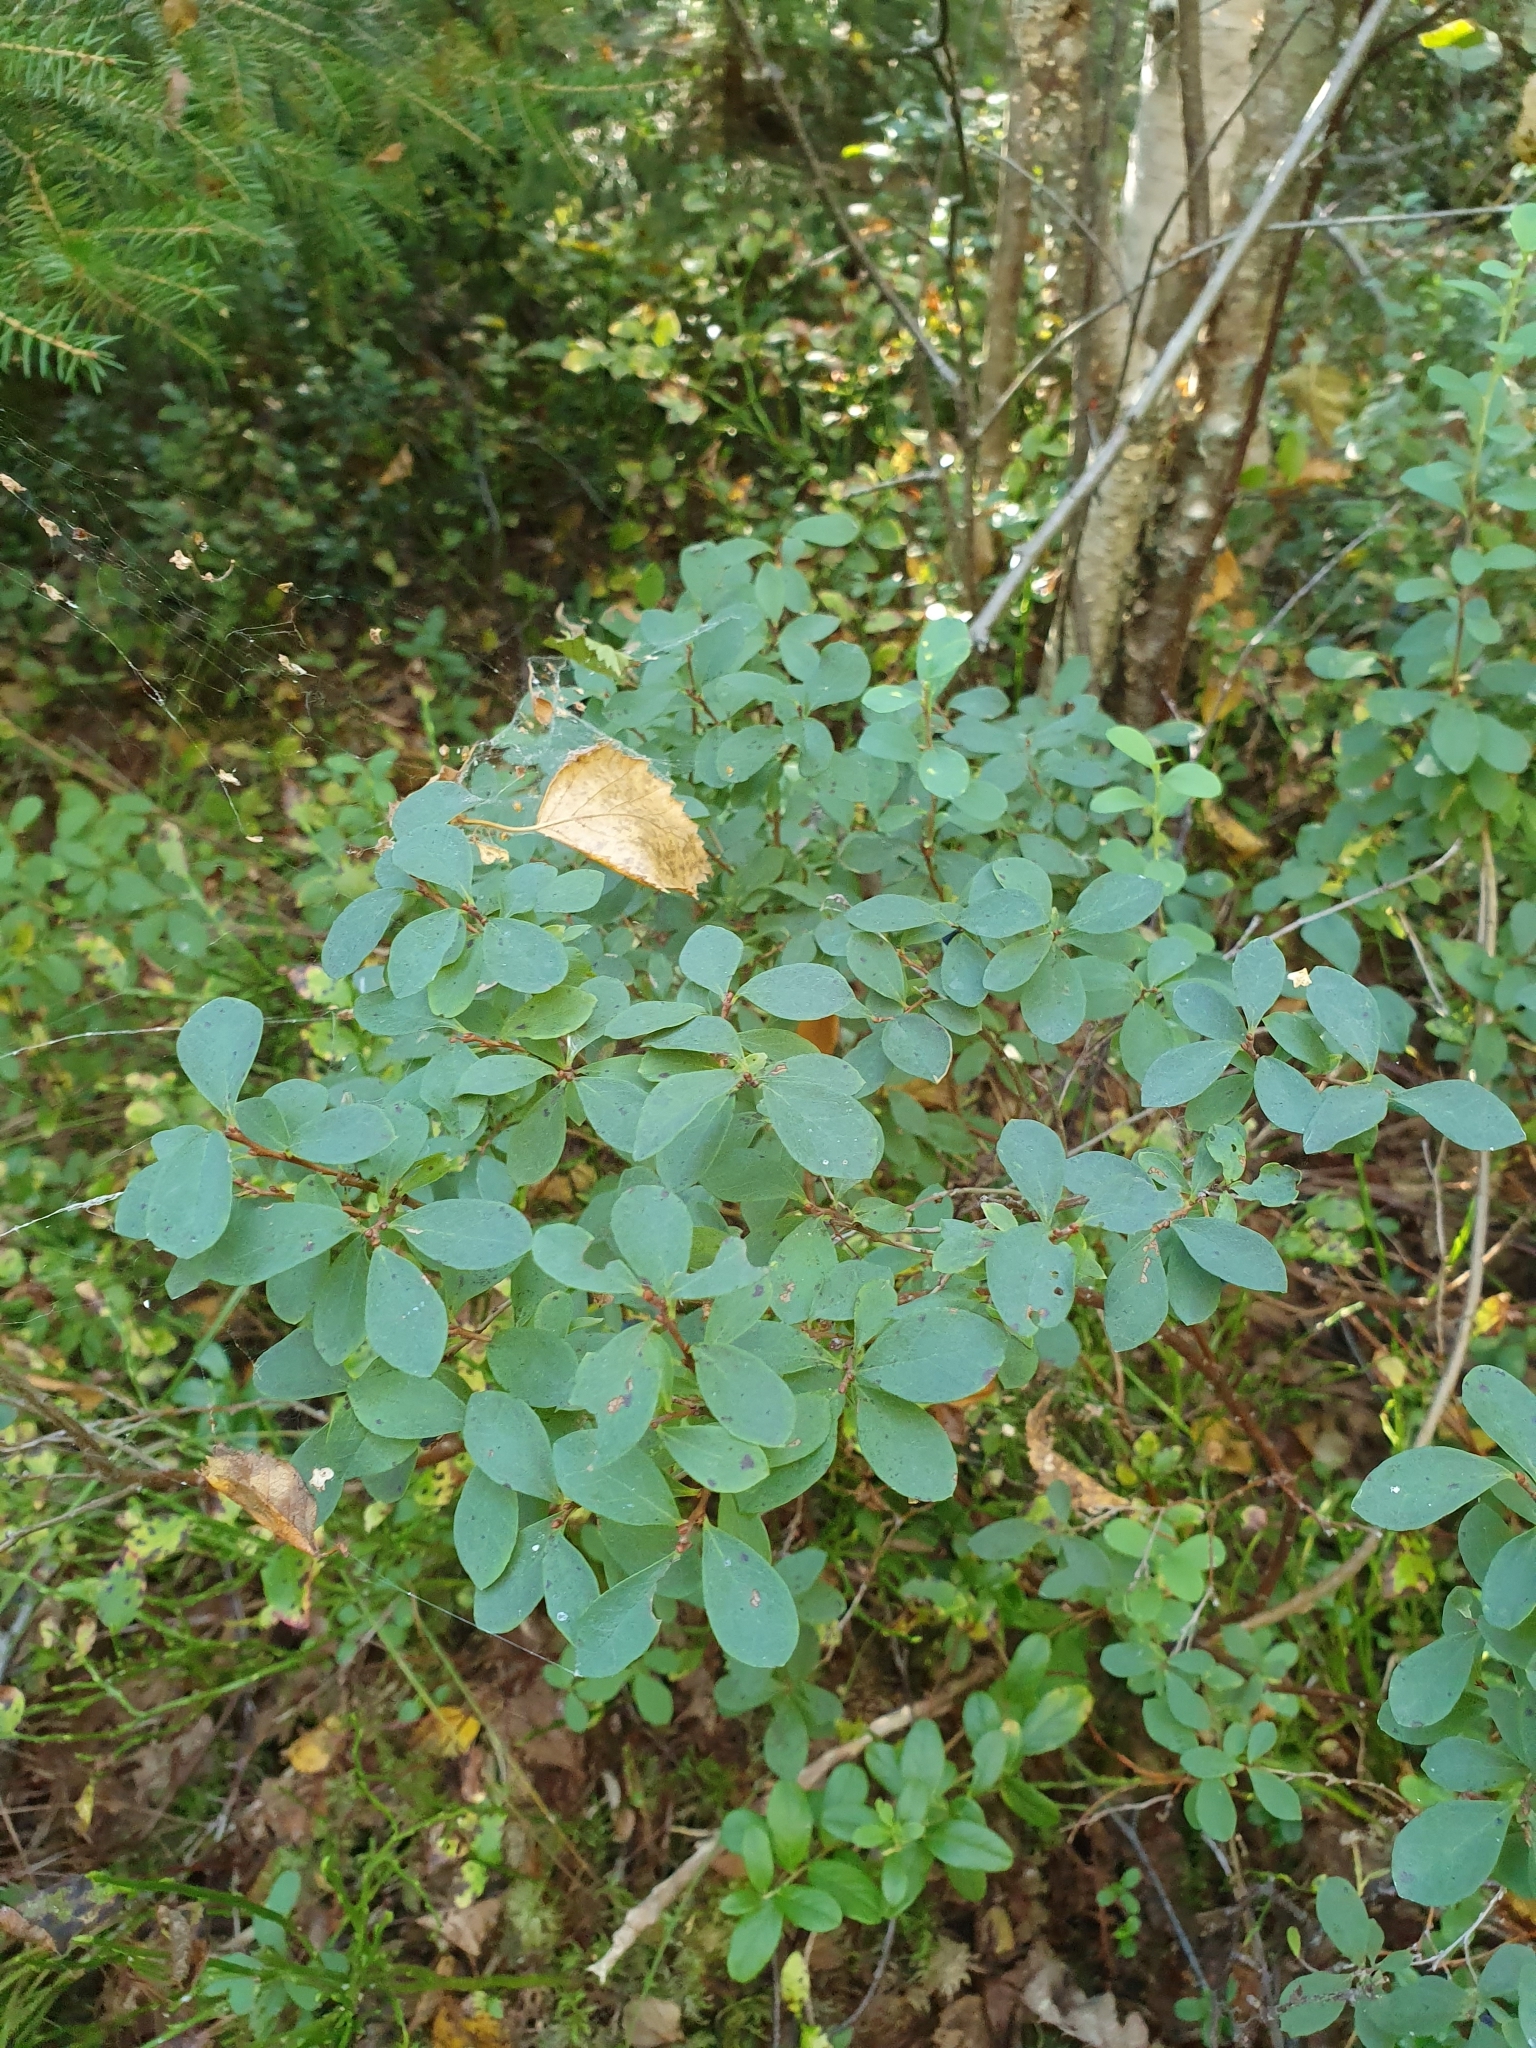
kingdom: Plantae
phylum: Tracheophyta
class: Magnoliopsida
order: Ericales
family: Ericaceae
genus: Vaccinium
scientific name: Vaccinium uliginosum
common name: Bog bilberry
